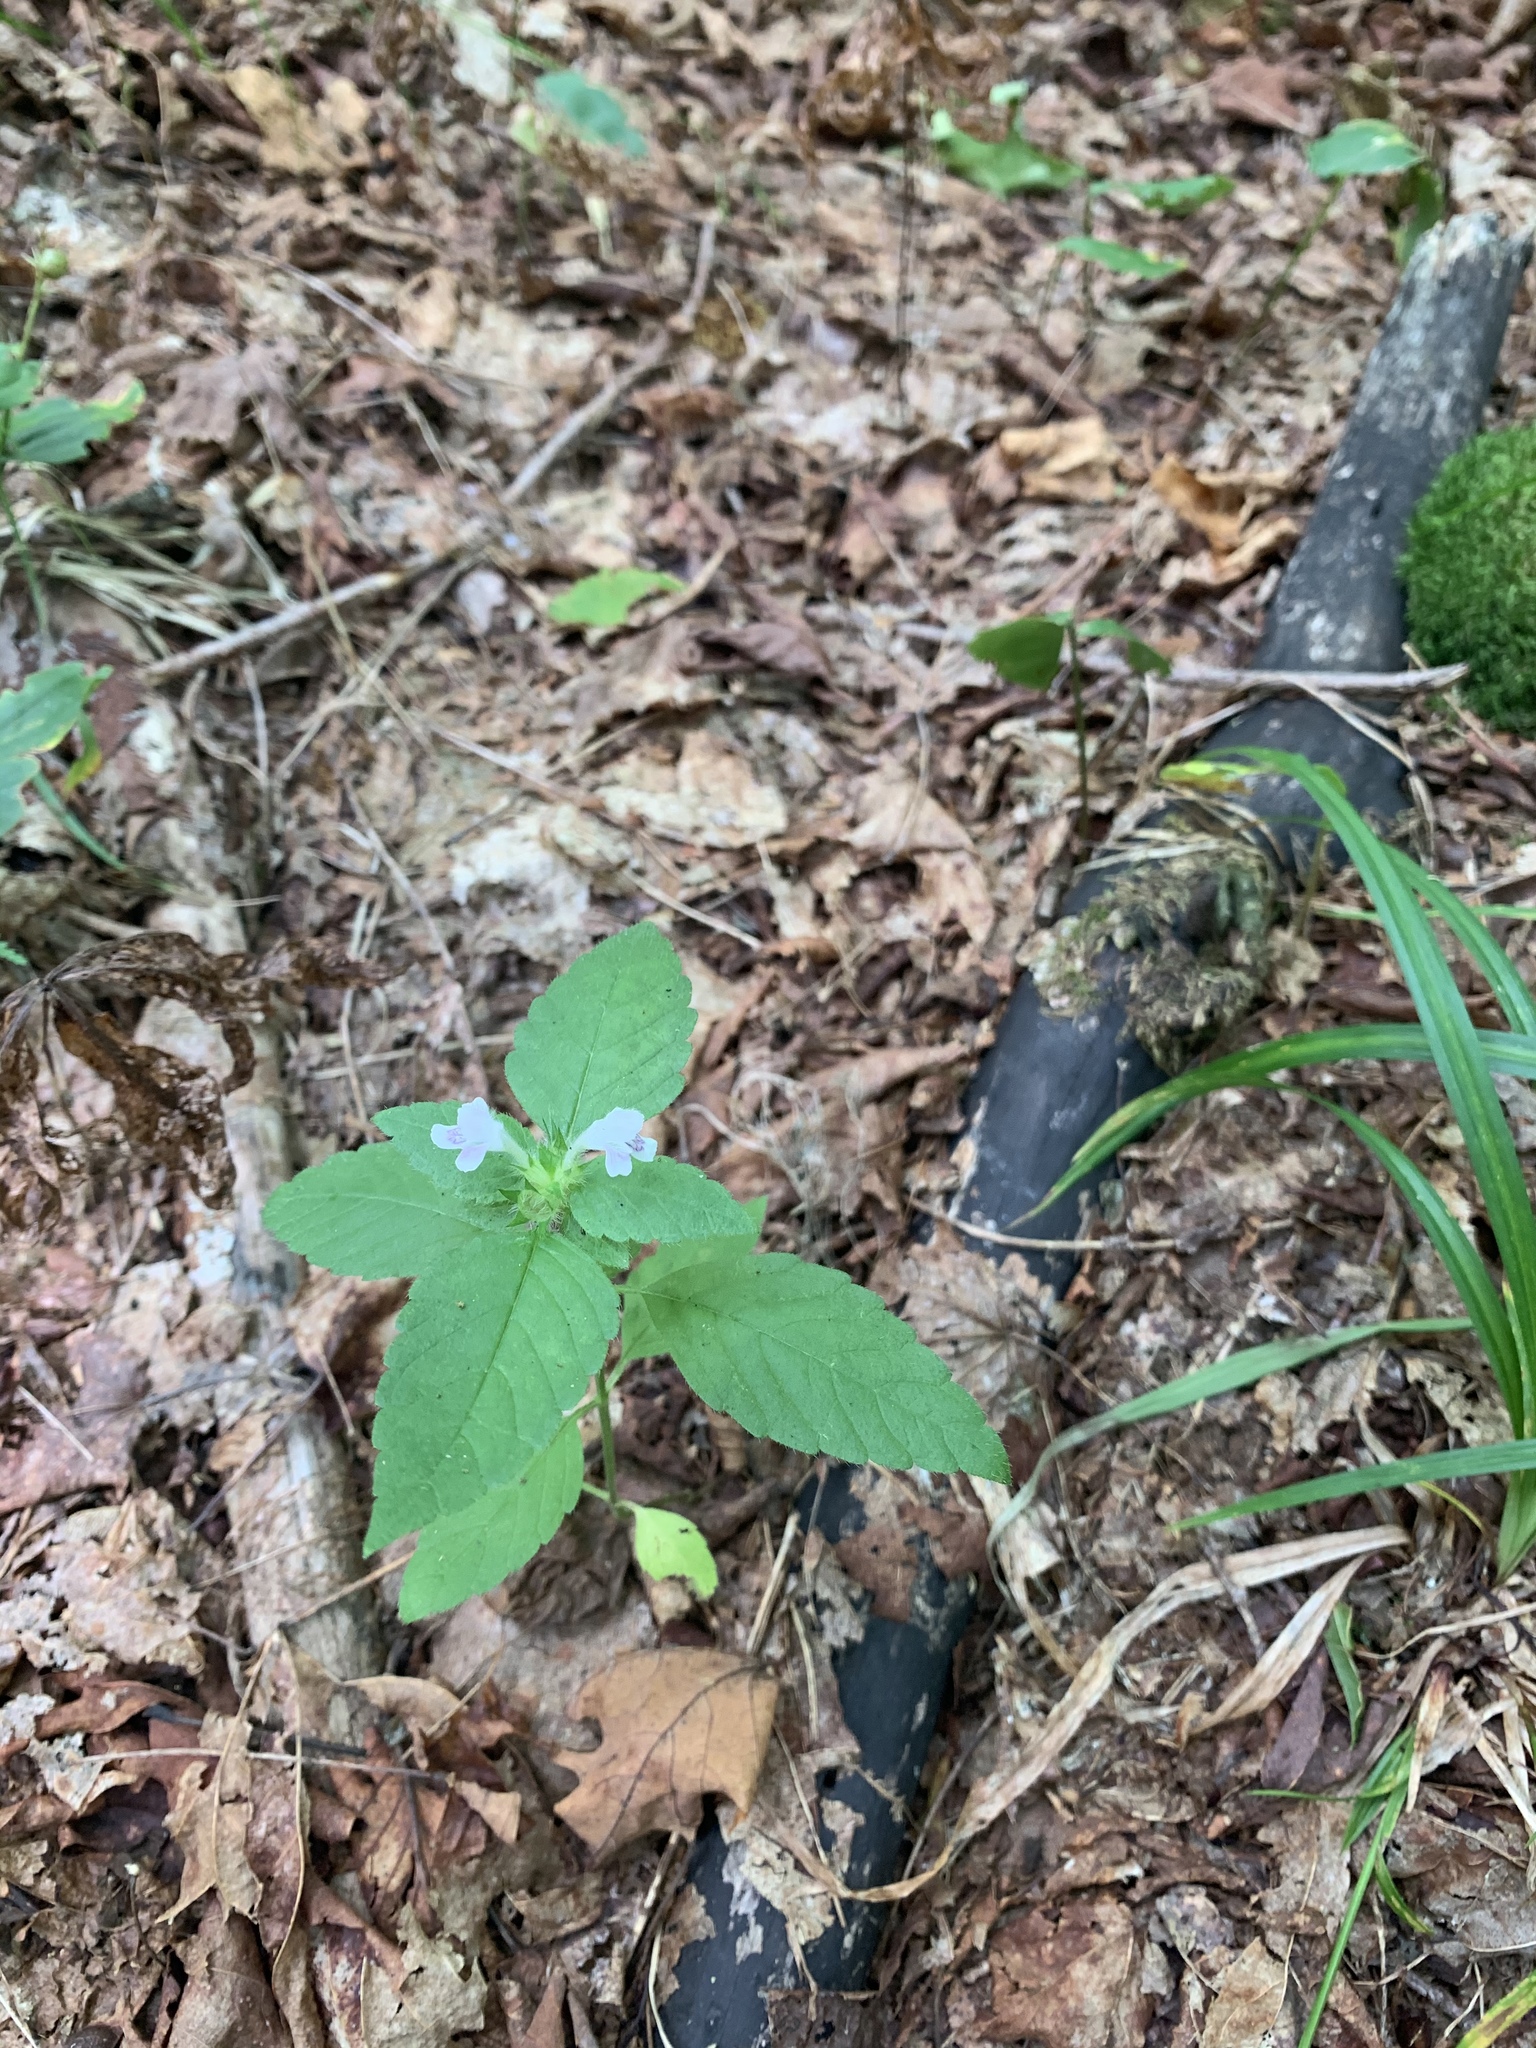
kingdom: Plantae
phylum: Tracheophyta
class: Magnoliopsida
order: Lamiales
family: Lamiaceae
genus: Galeopsis
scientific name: Galeopsis tetrahit
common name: Common hemp-nettle
